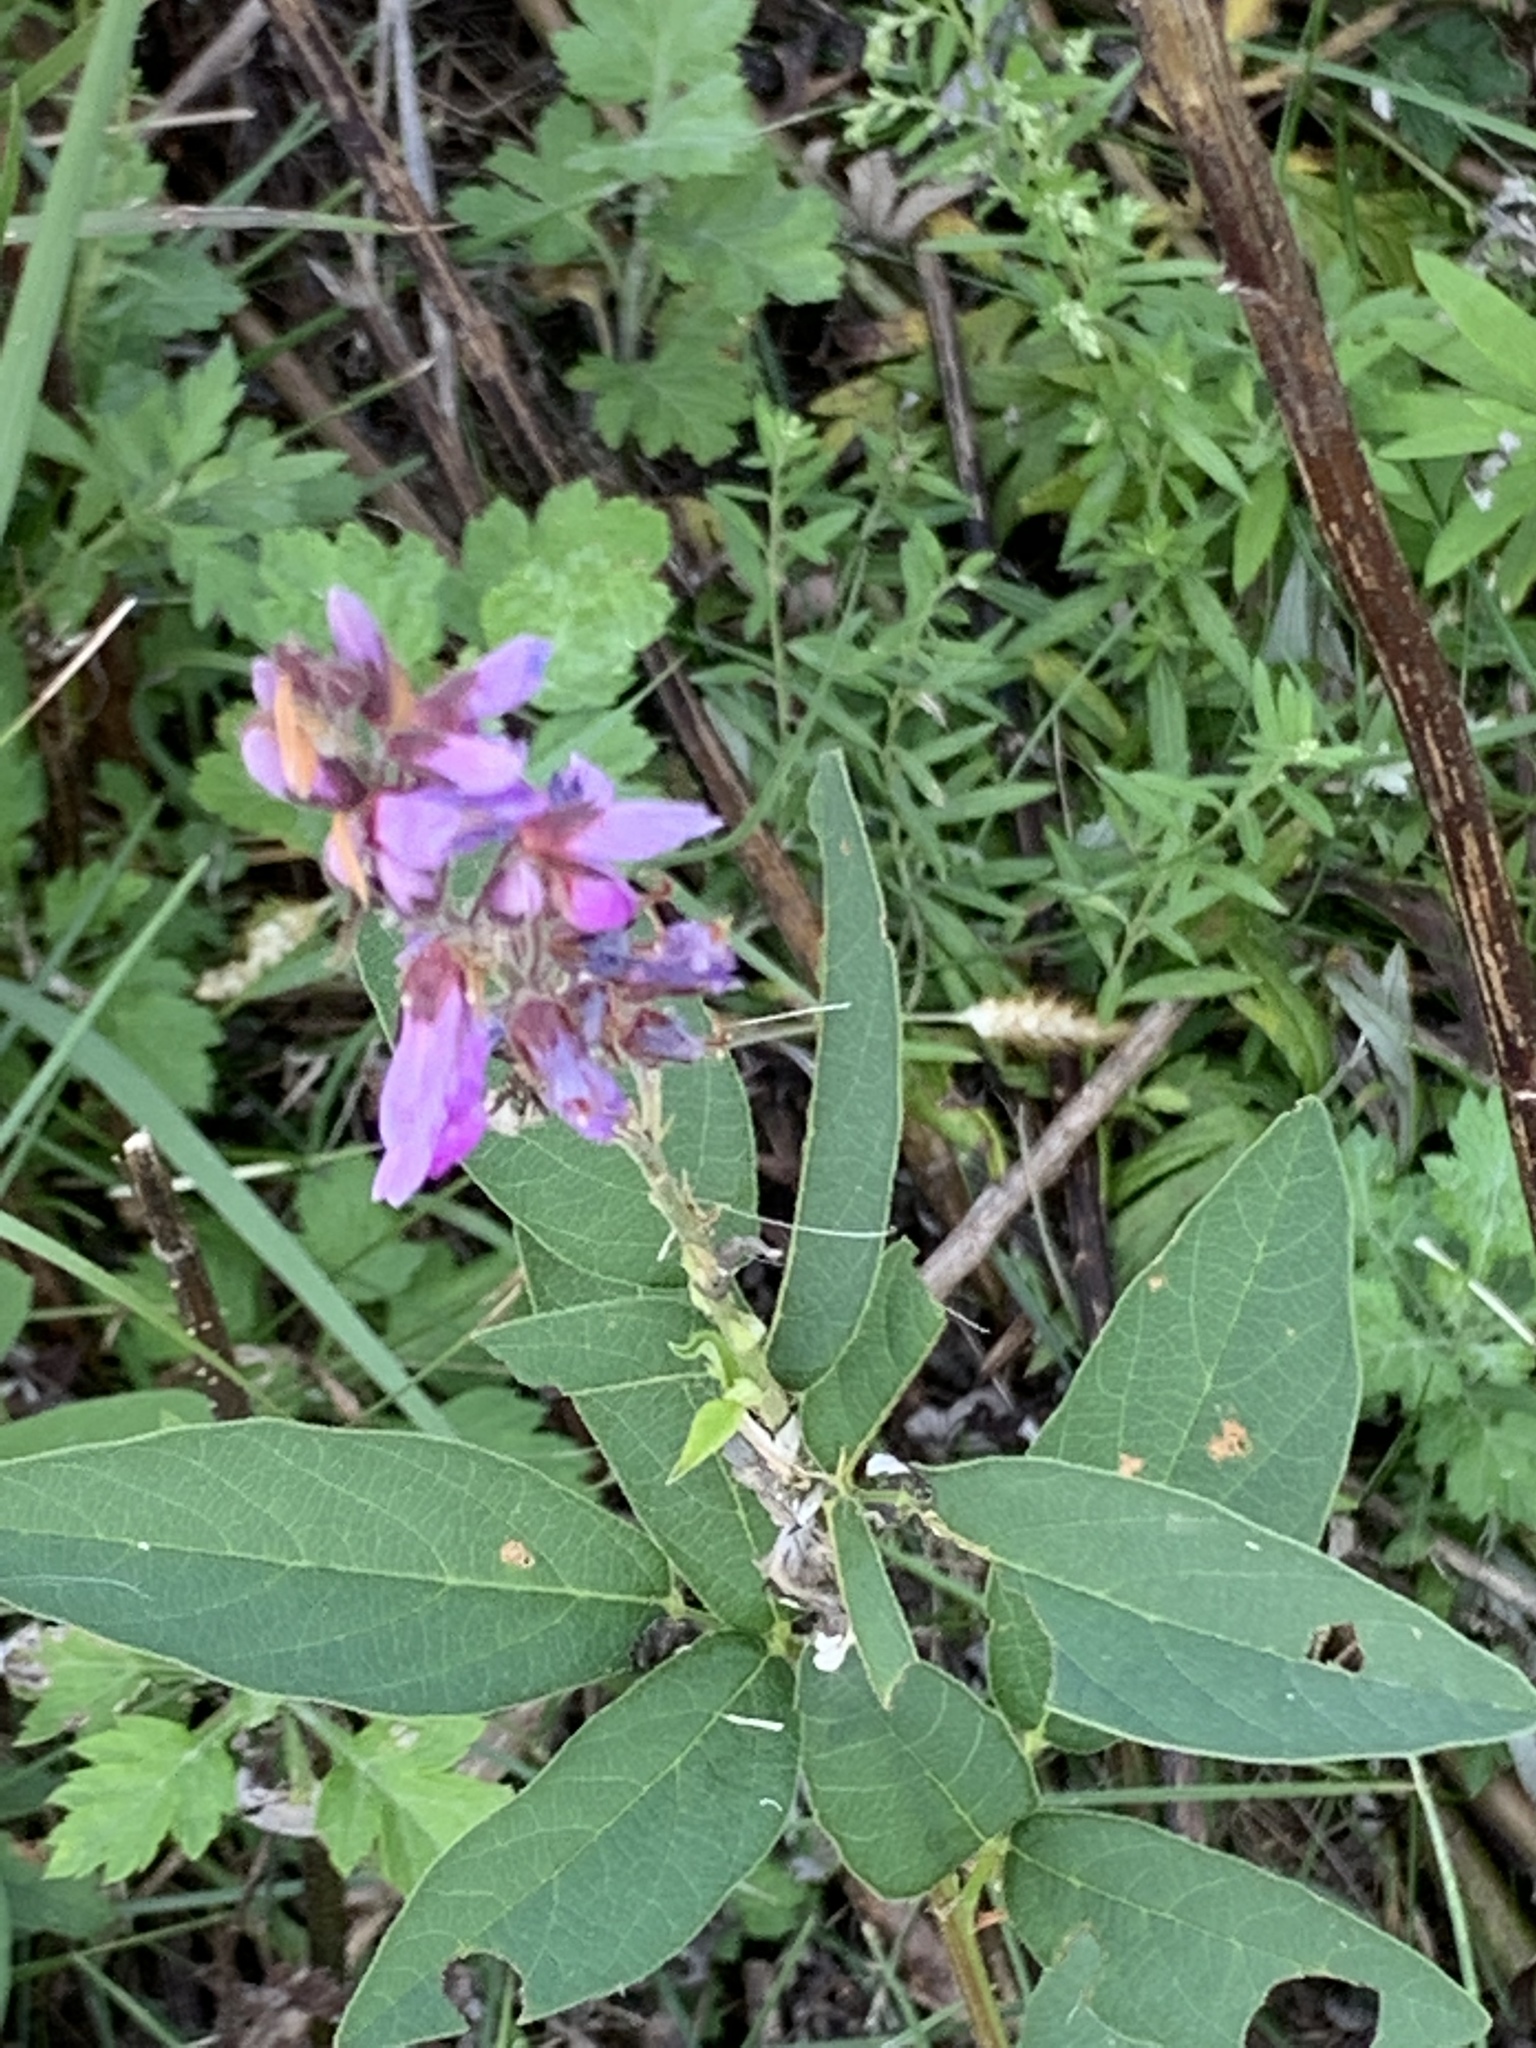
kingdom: Plantae
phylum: Tracheophyta
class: Magnoliopsida
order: Fabales
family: Fabaceae
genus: Desmodium
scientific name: Desmodium canadense
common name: Canada tick-trefoil
